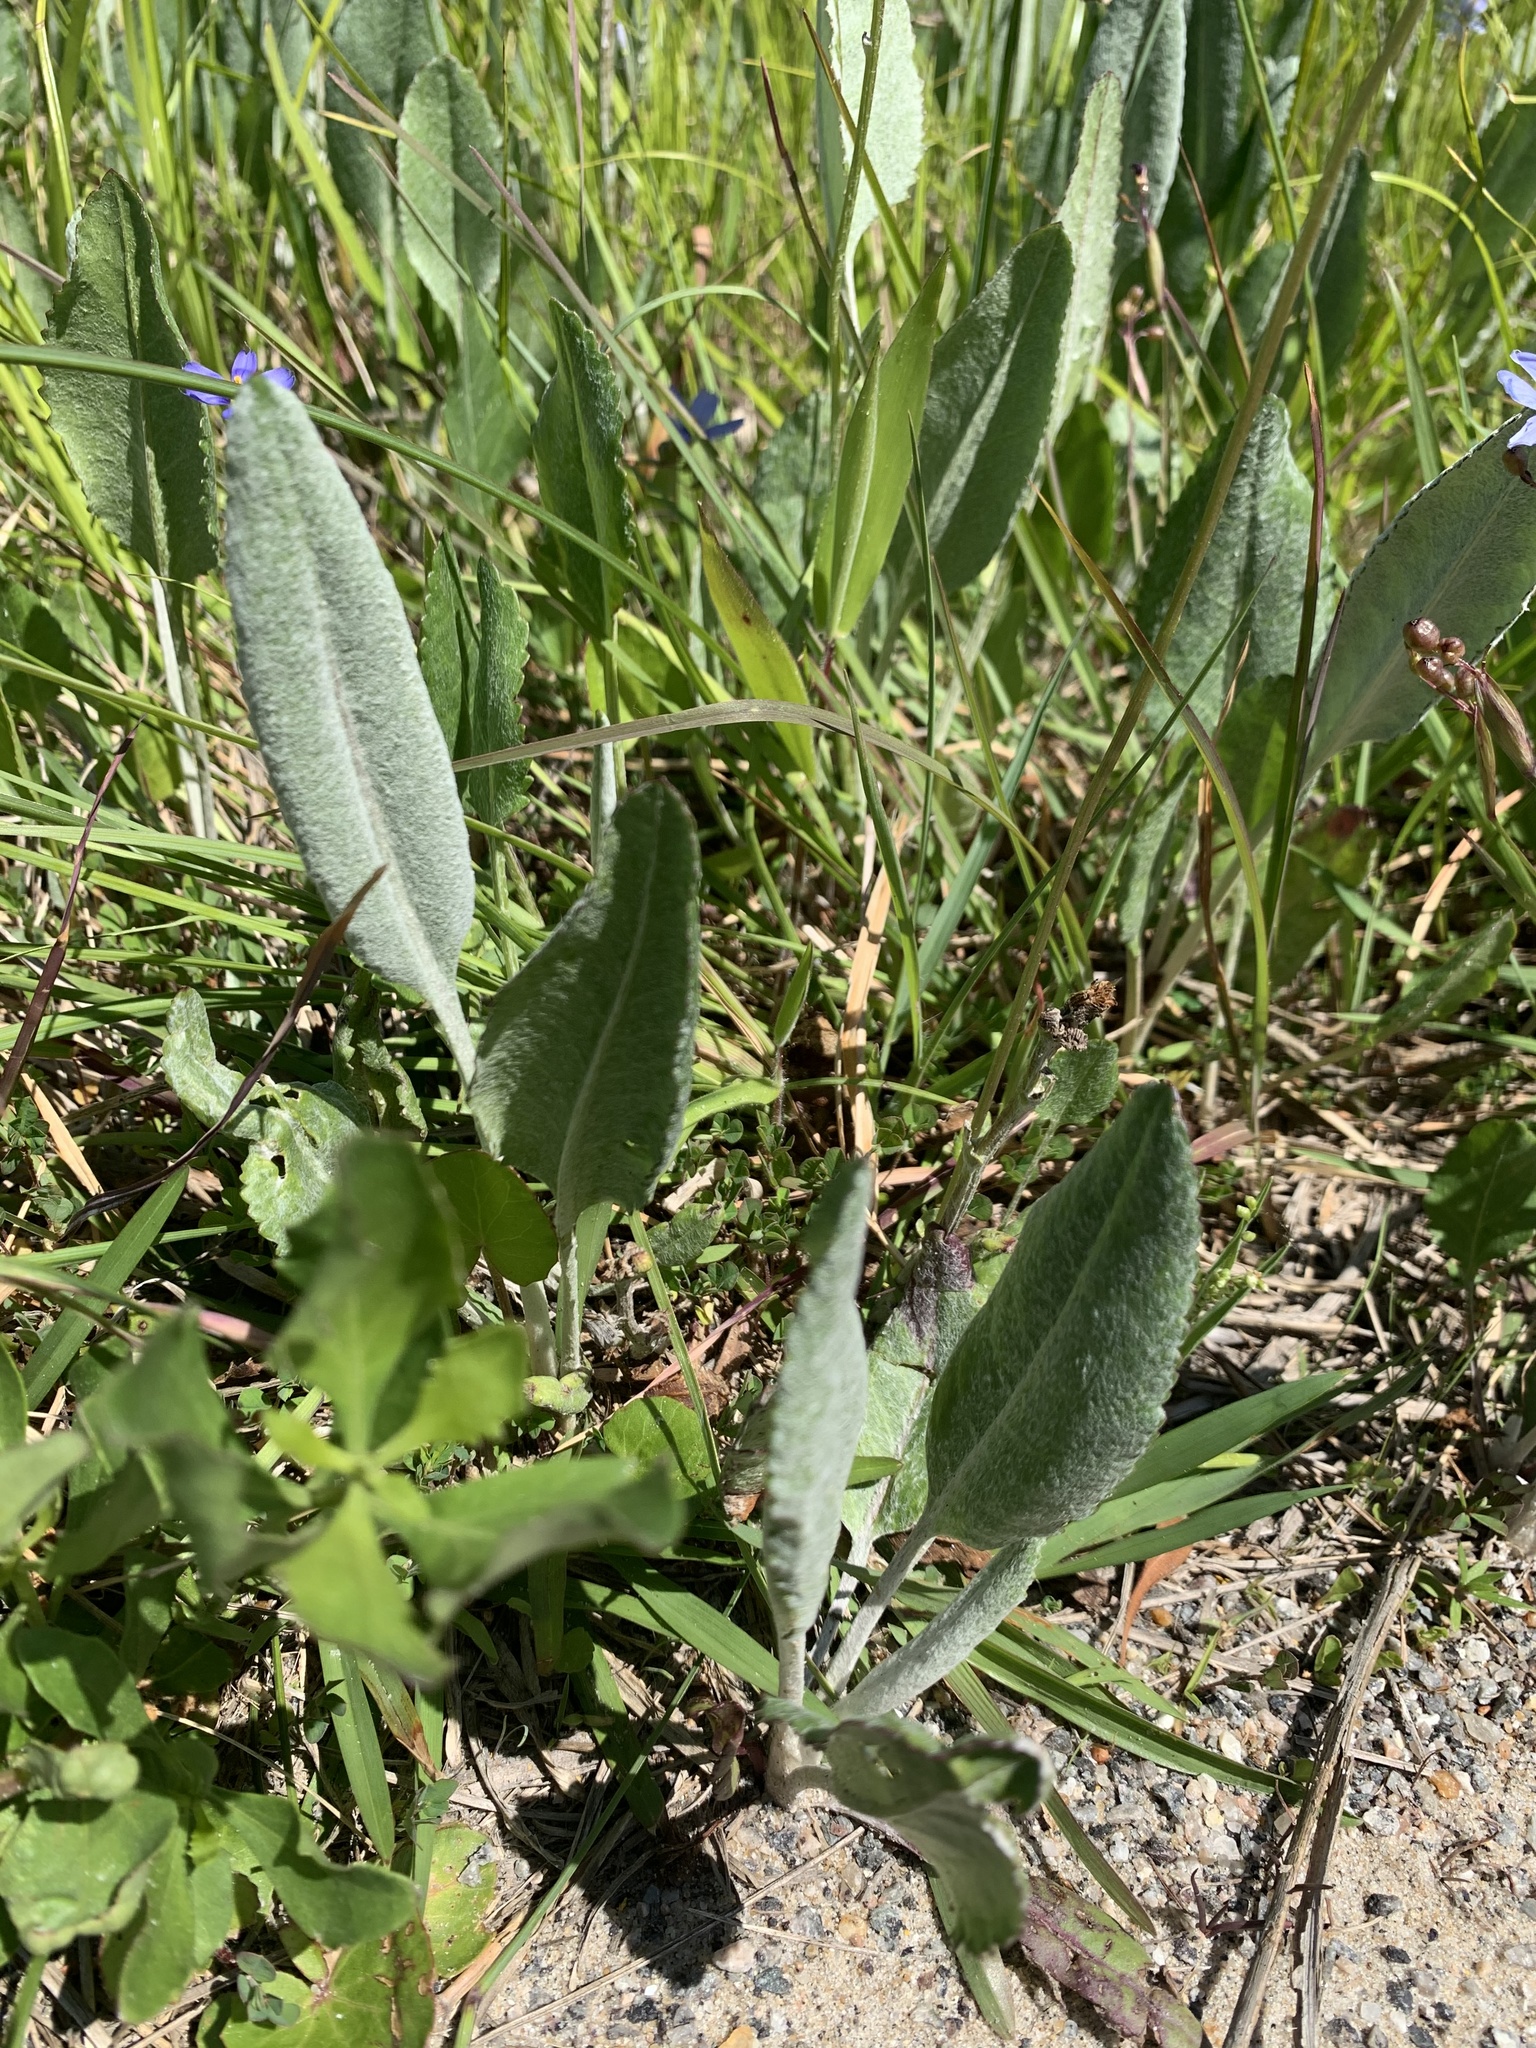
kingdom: Plantae
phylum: Tracheophyta
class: Magnoliopsida
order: Asterales
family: Asteraceae
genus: Packera
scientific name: Packera dubia
